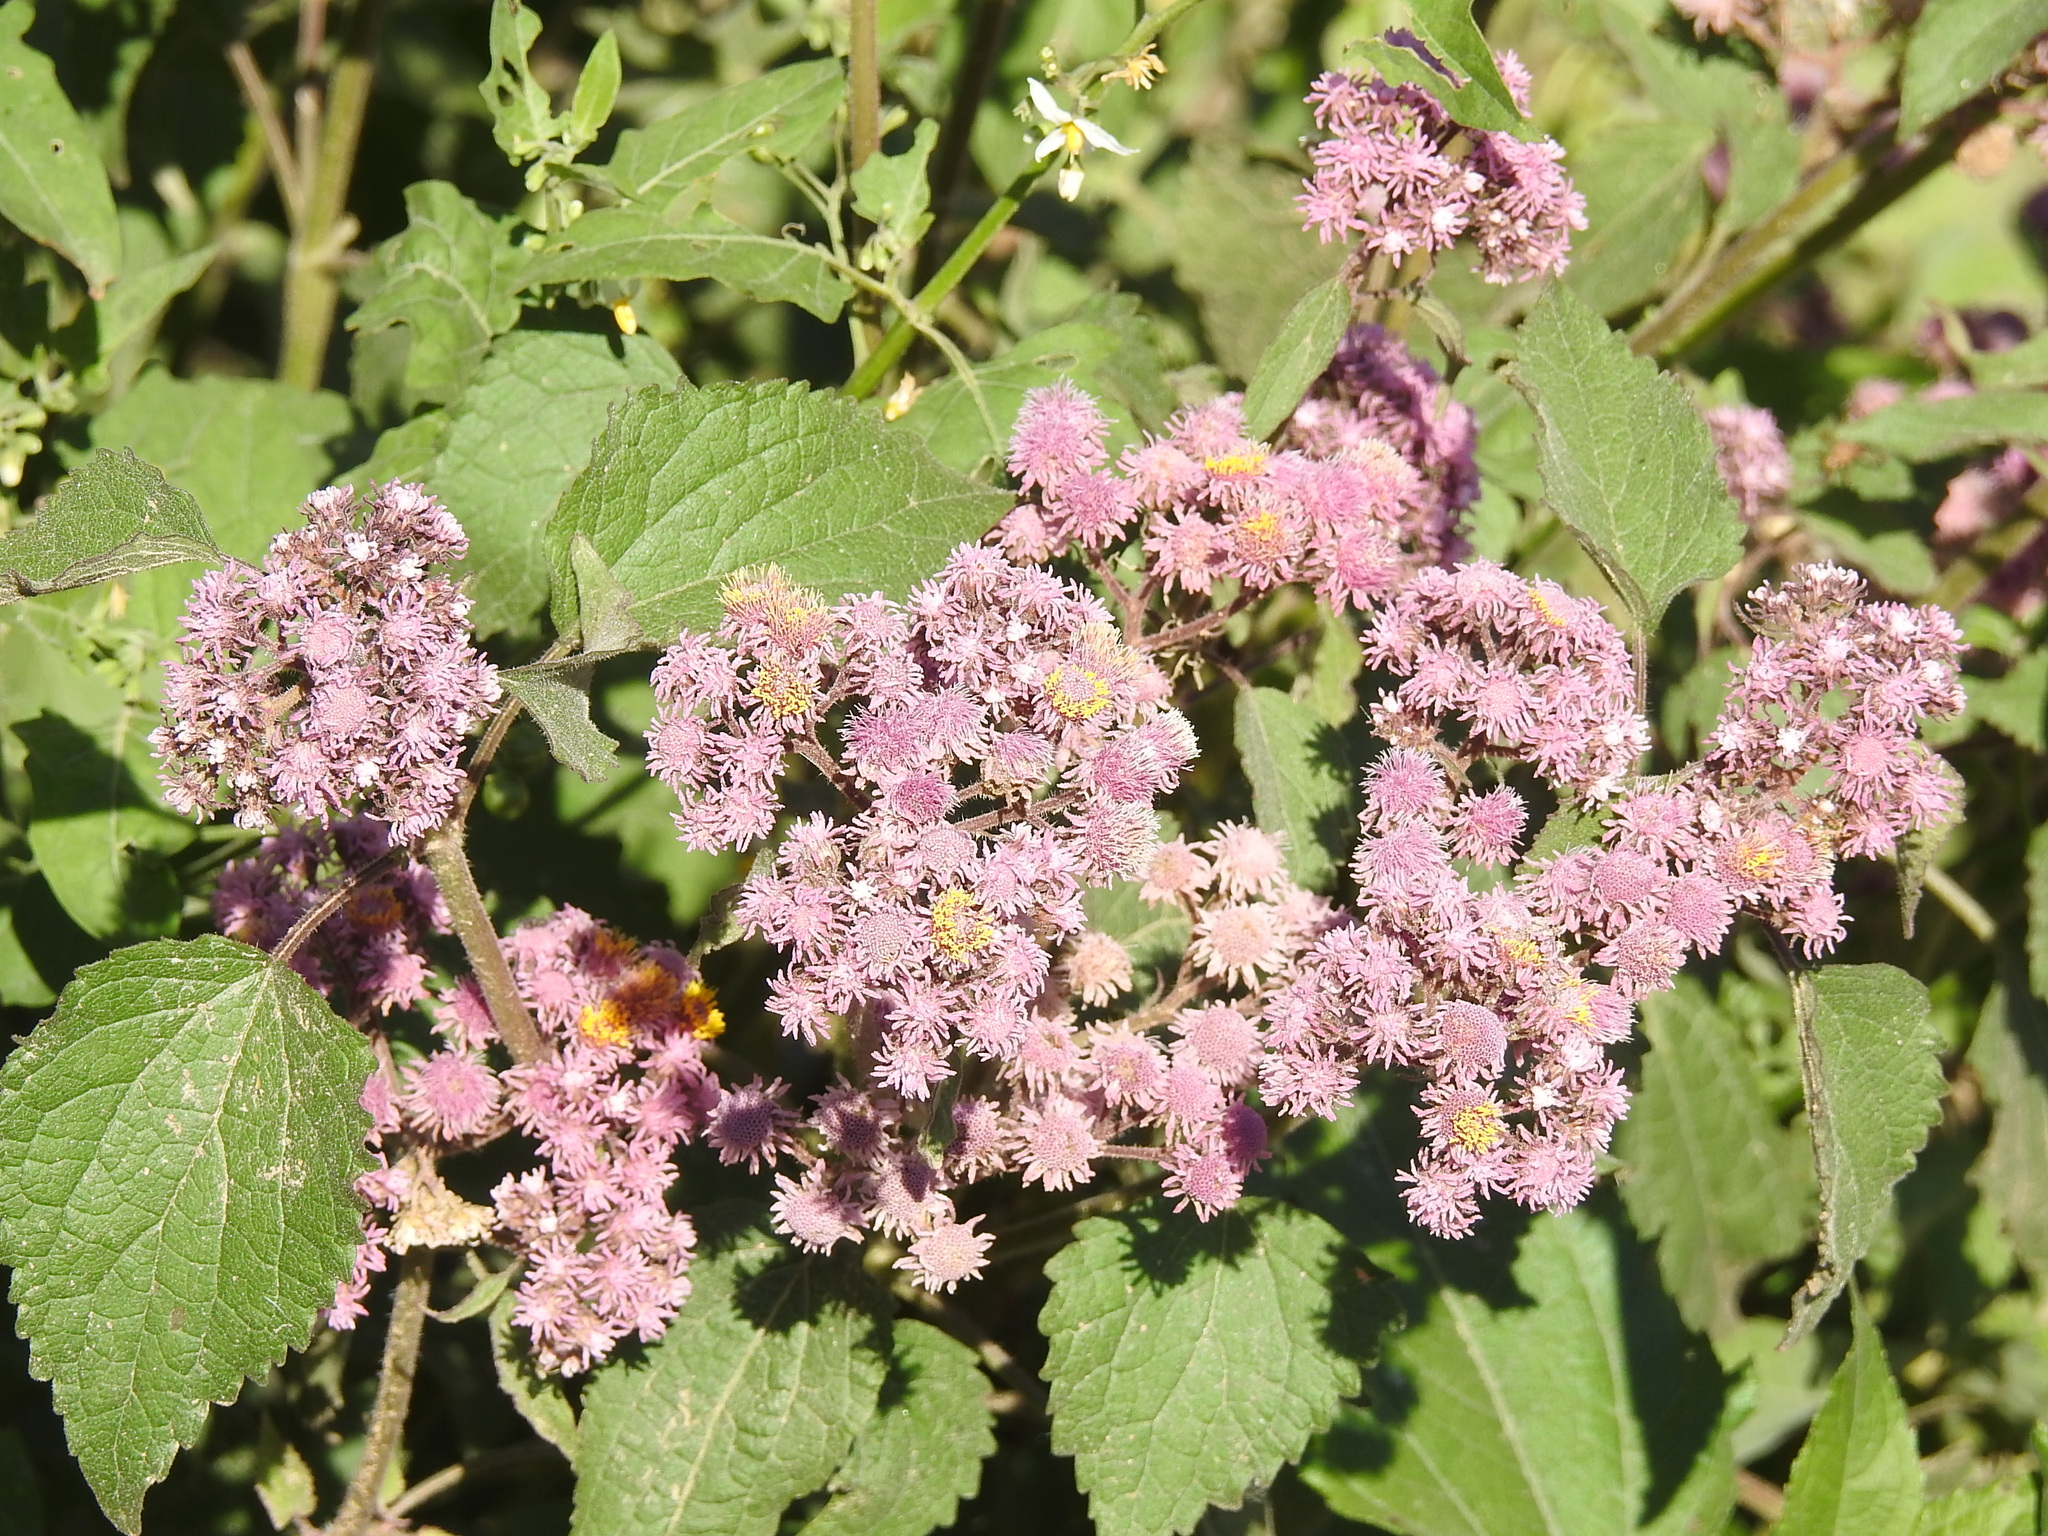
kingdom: Plantae
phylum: Tracheophyta
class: Magnoliopsida
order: Asterales
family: Asteraceae
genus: Urolepis
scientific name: Urolepis hecatantha
